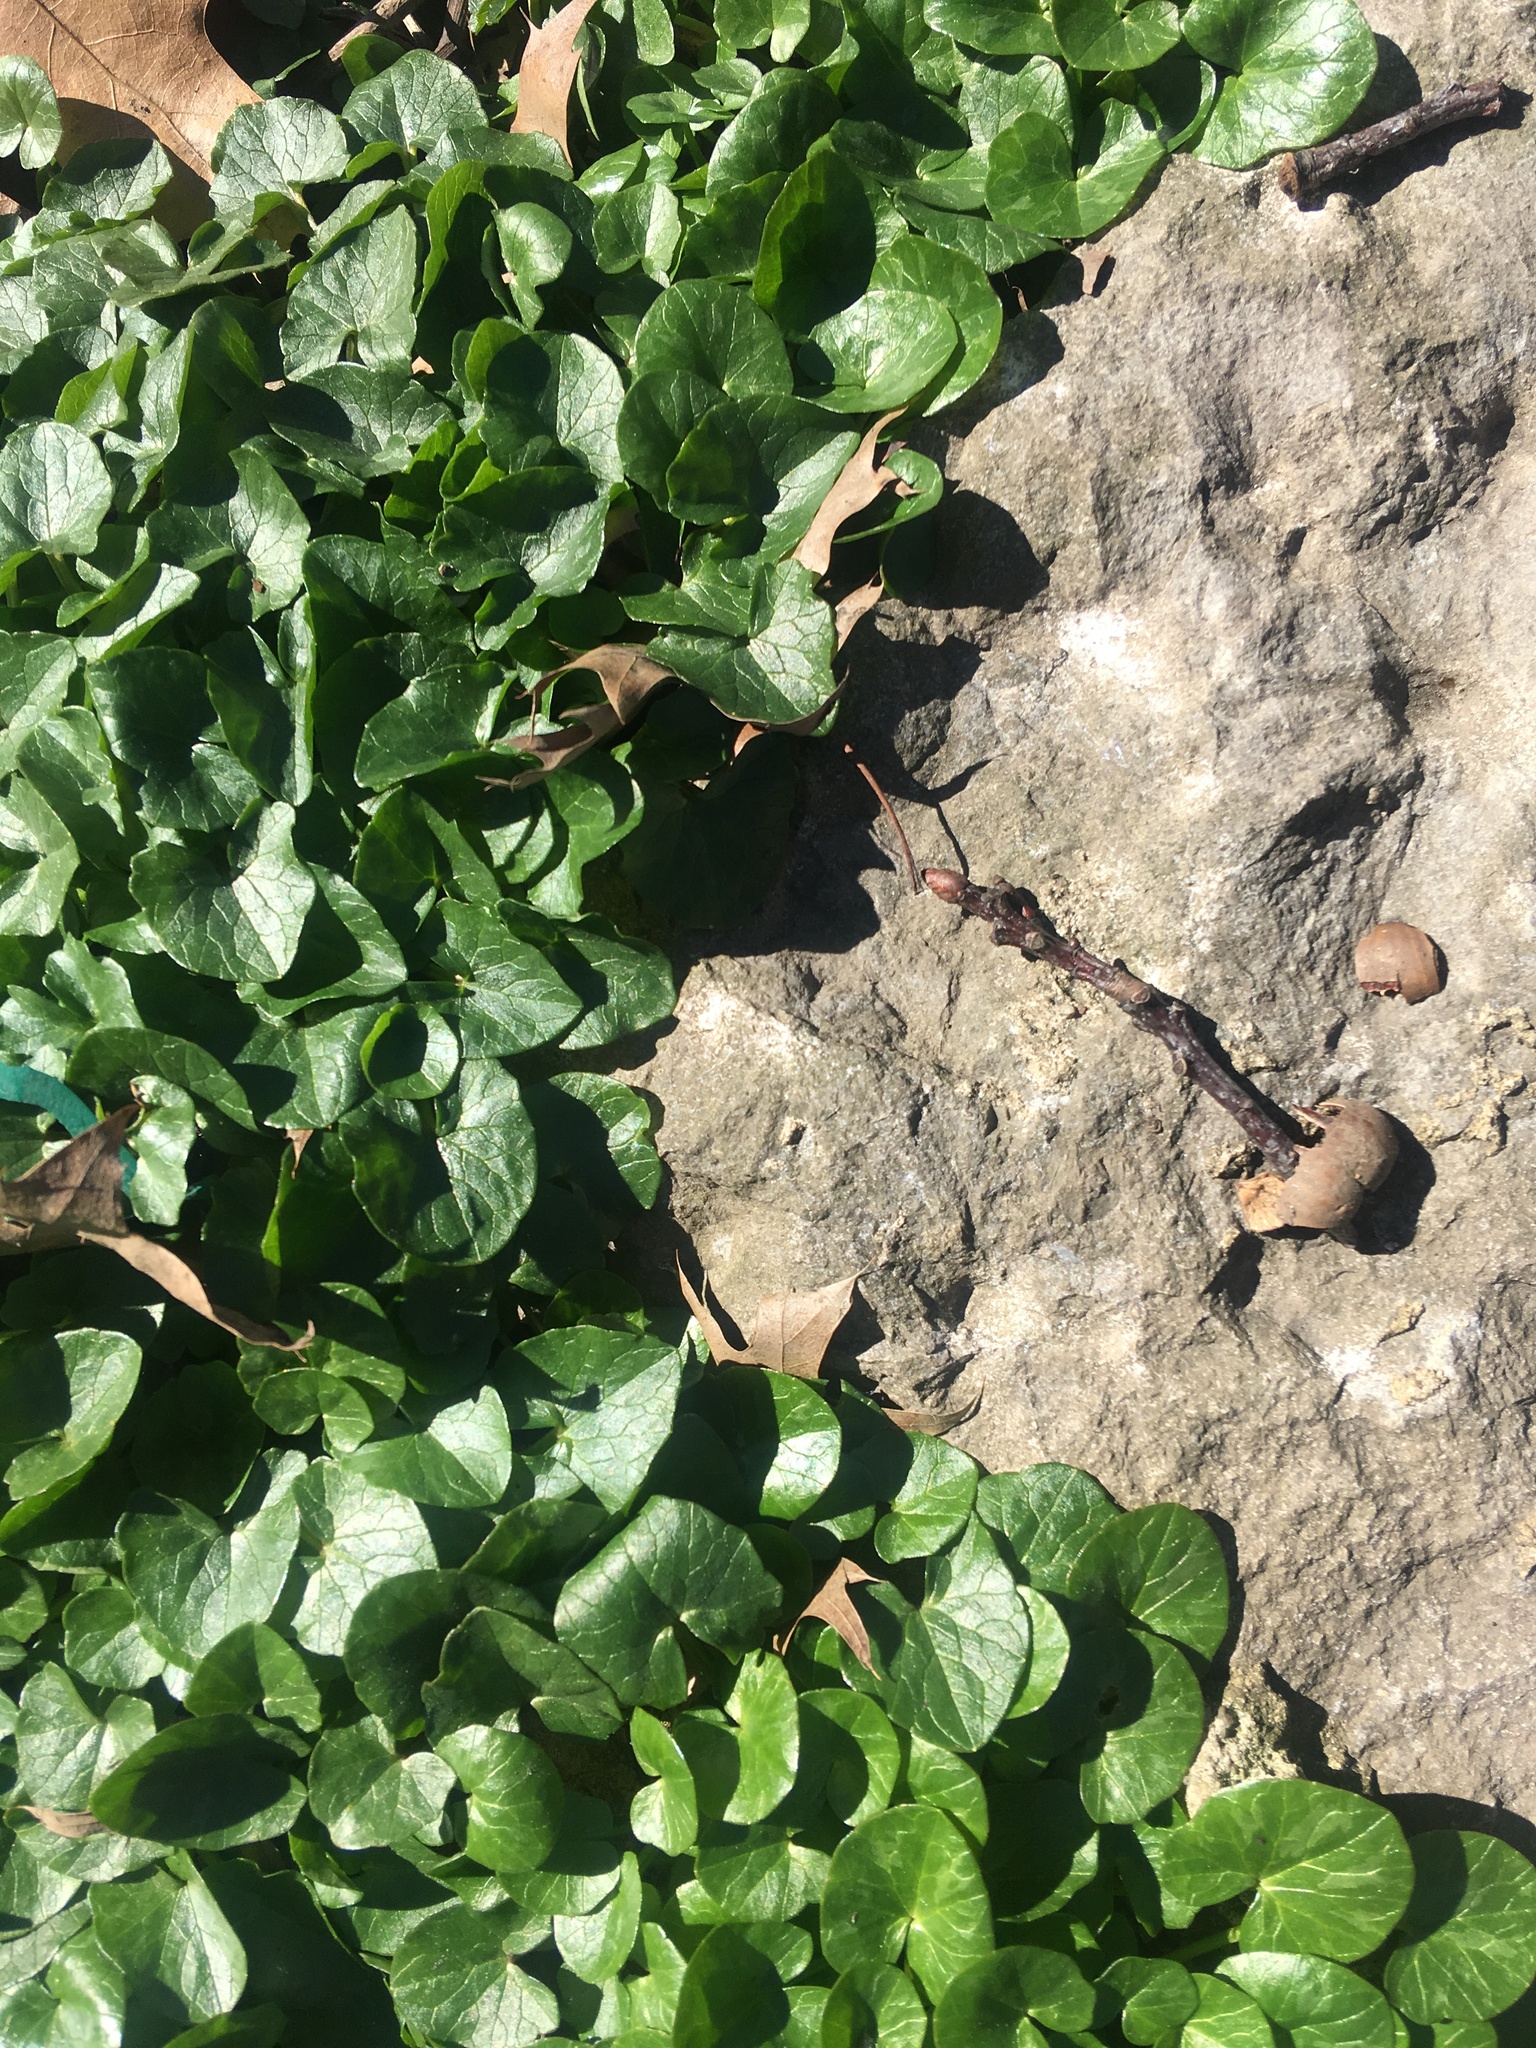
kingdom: Plantae
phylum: Tracheophyta
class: Magnoliopsida
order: Ranunculales
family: Ranunculaceae
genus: Ficaria
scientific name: Ficaria verna
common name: Lesser celandine
